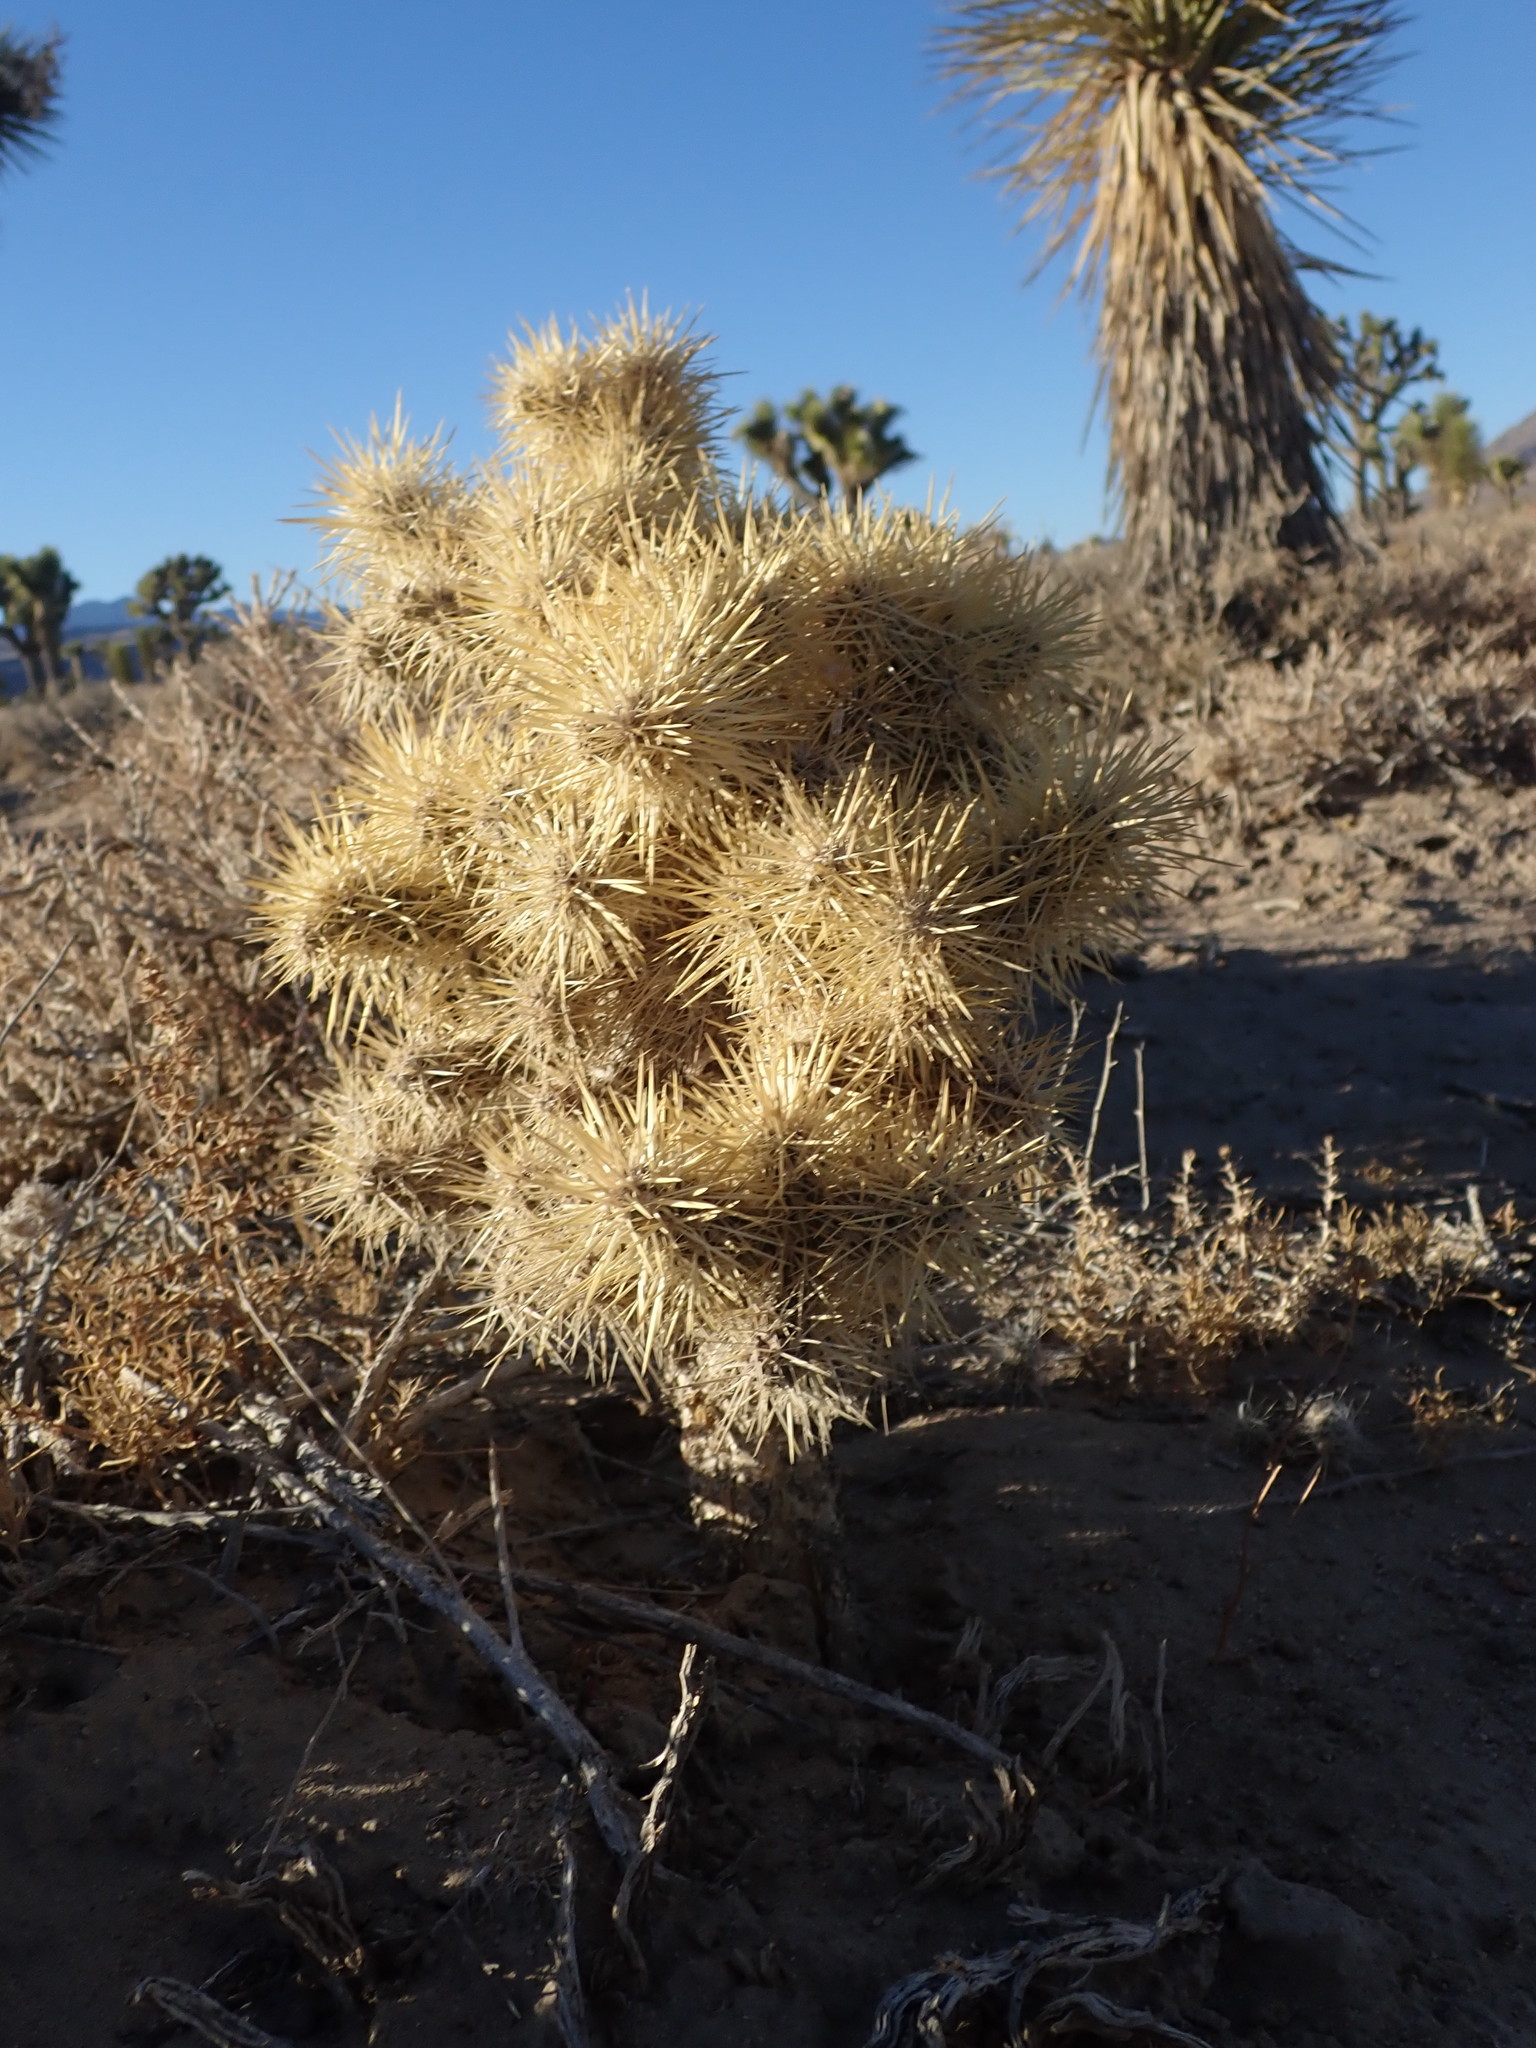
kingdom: Plantae
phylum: Tracheophyta
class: Magnoliopsida
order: Caryophyllales
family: Cactaceae
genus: Cylindropuntia
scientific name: Cylindropuntia echinocarpa
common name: Ground cholla
